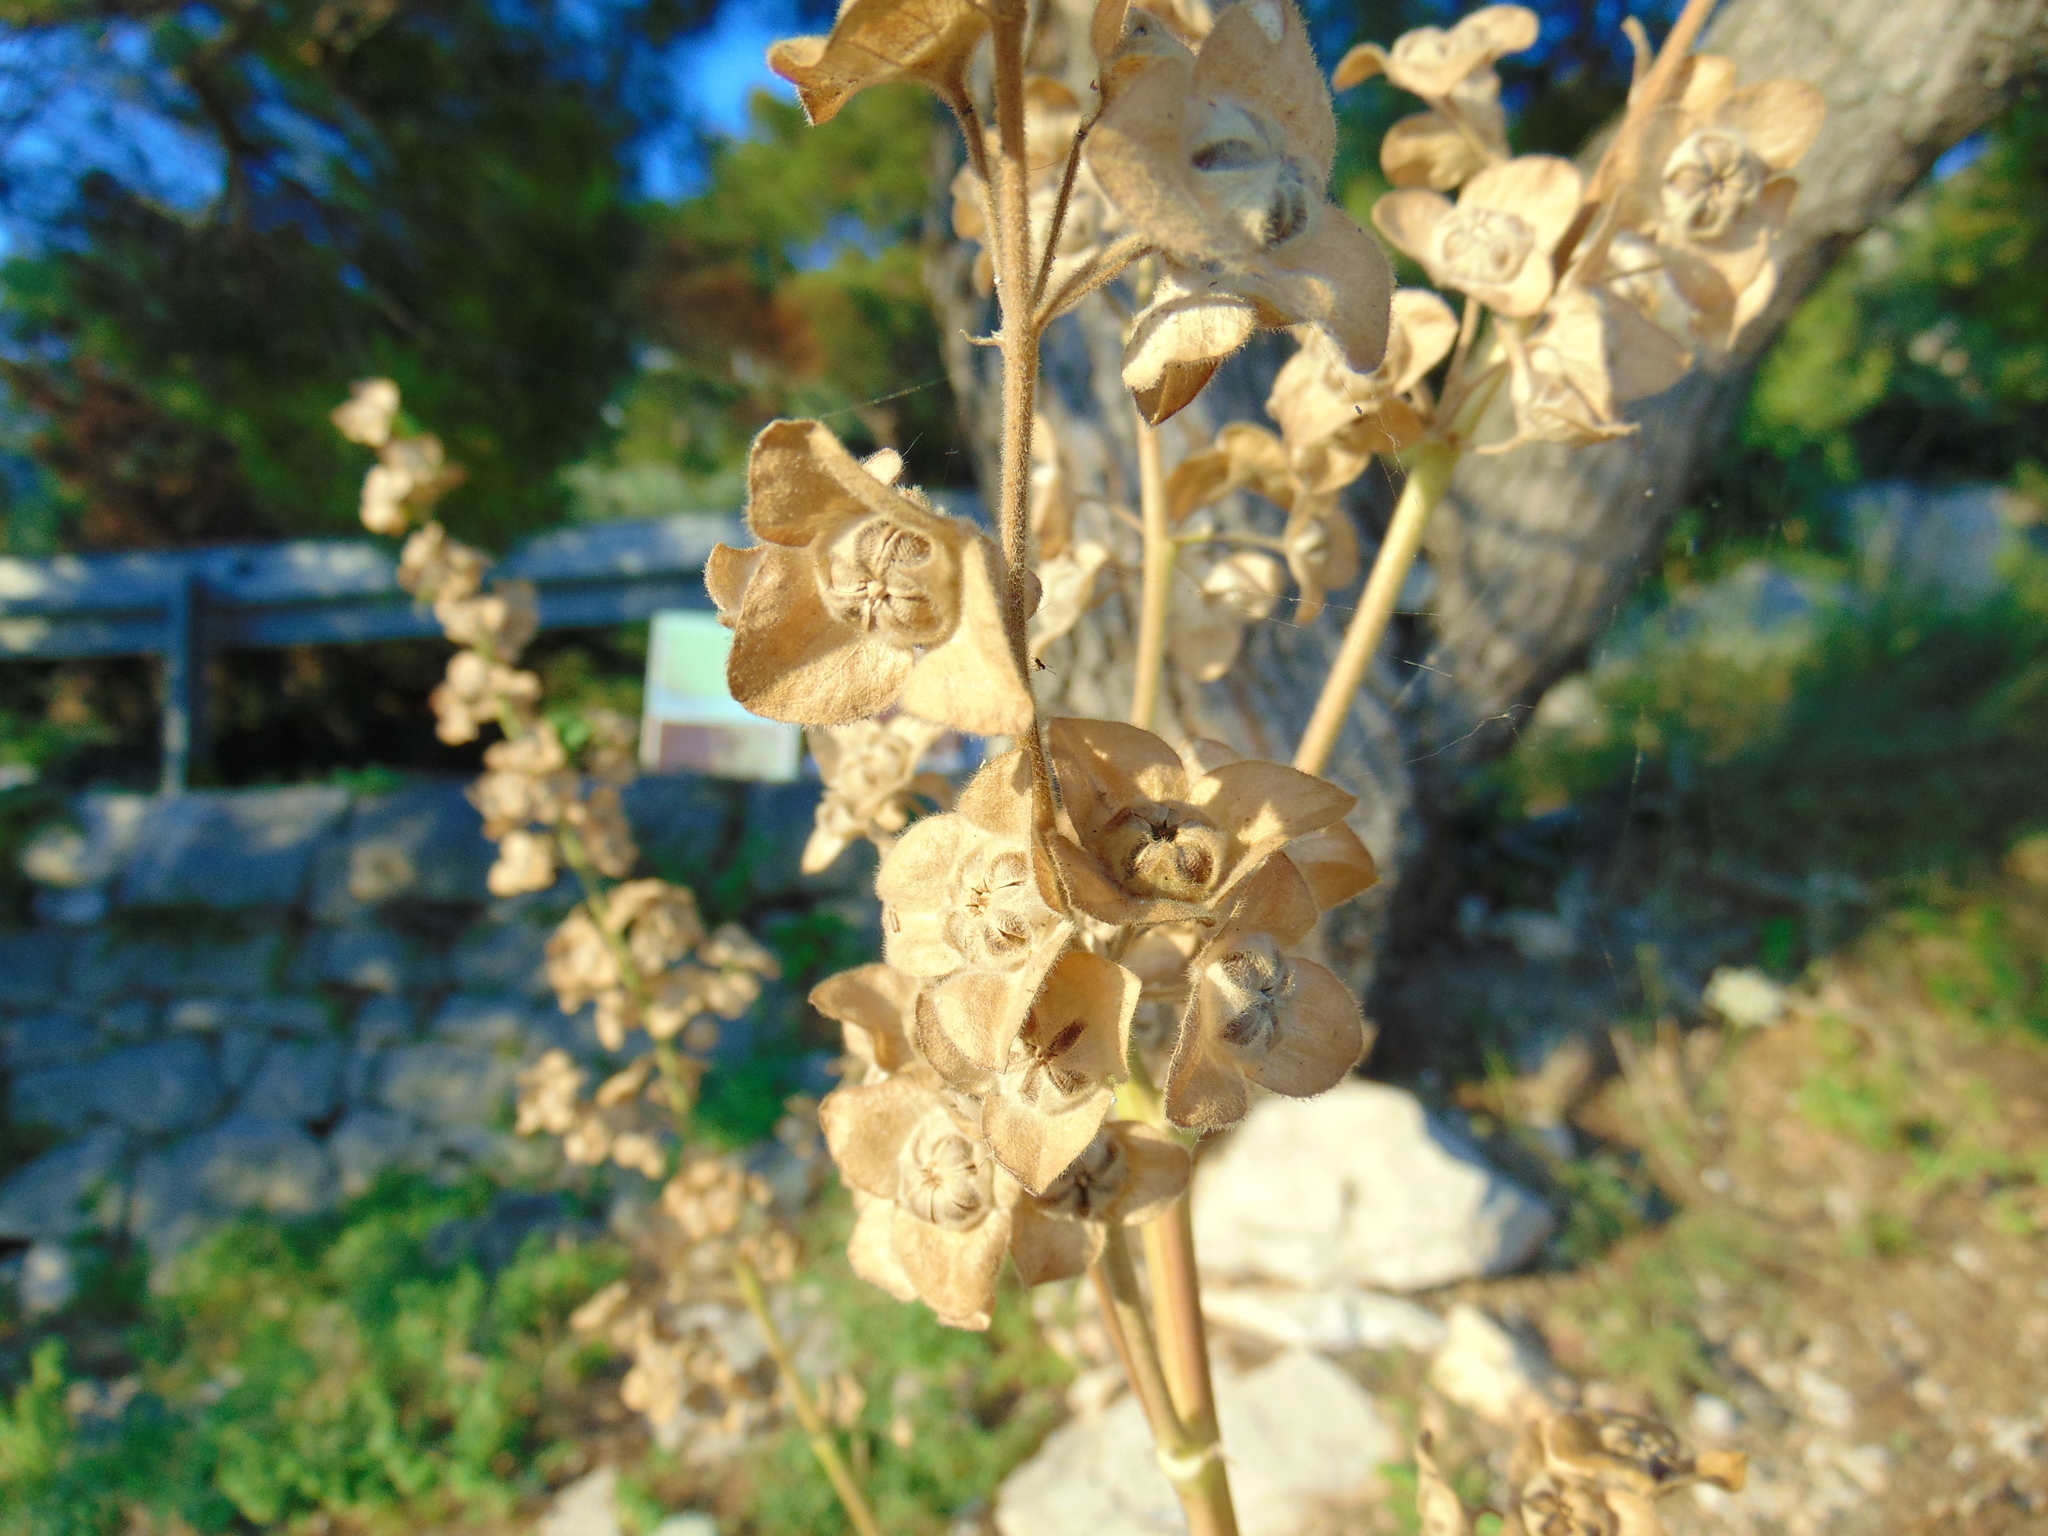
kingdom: Plantae
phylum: Tracheophyta
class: Magnoliopsida
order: Malvales
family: Malvaceae
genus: Malva
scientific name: Malva arborea
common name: Tree mallow
